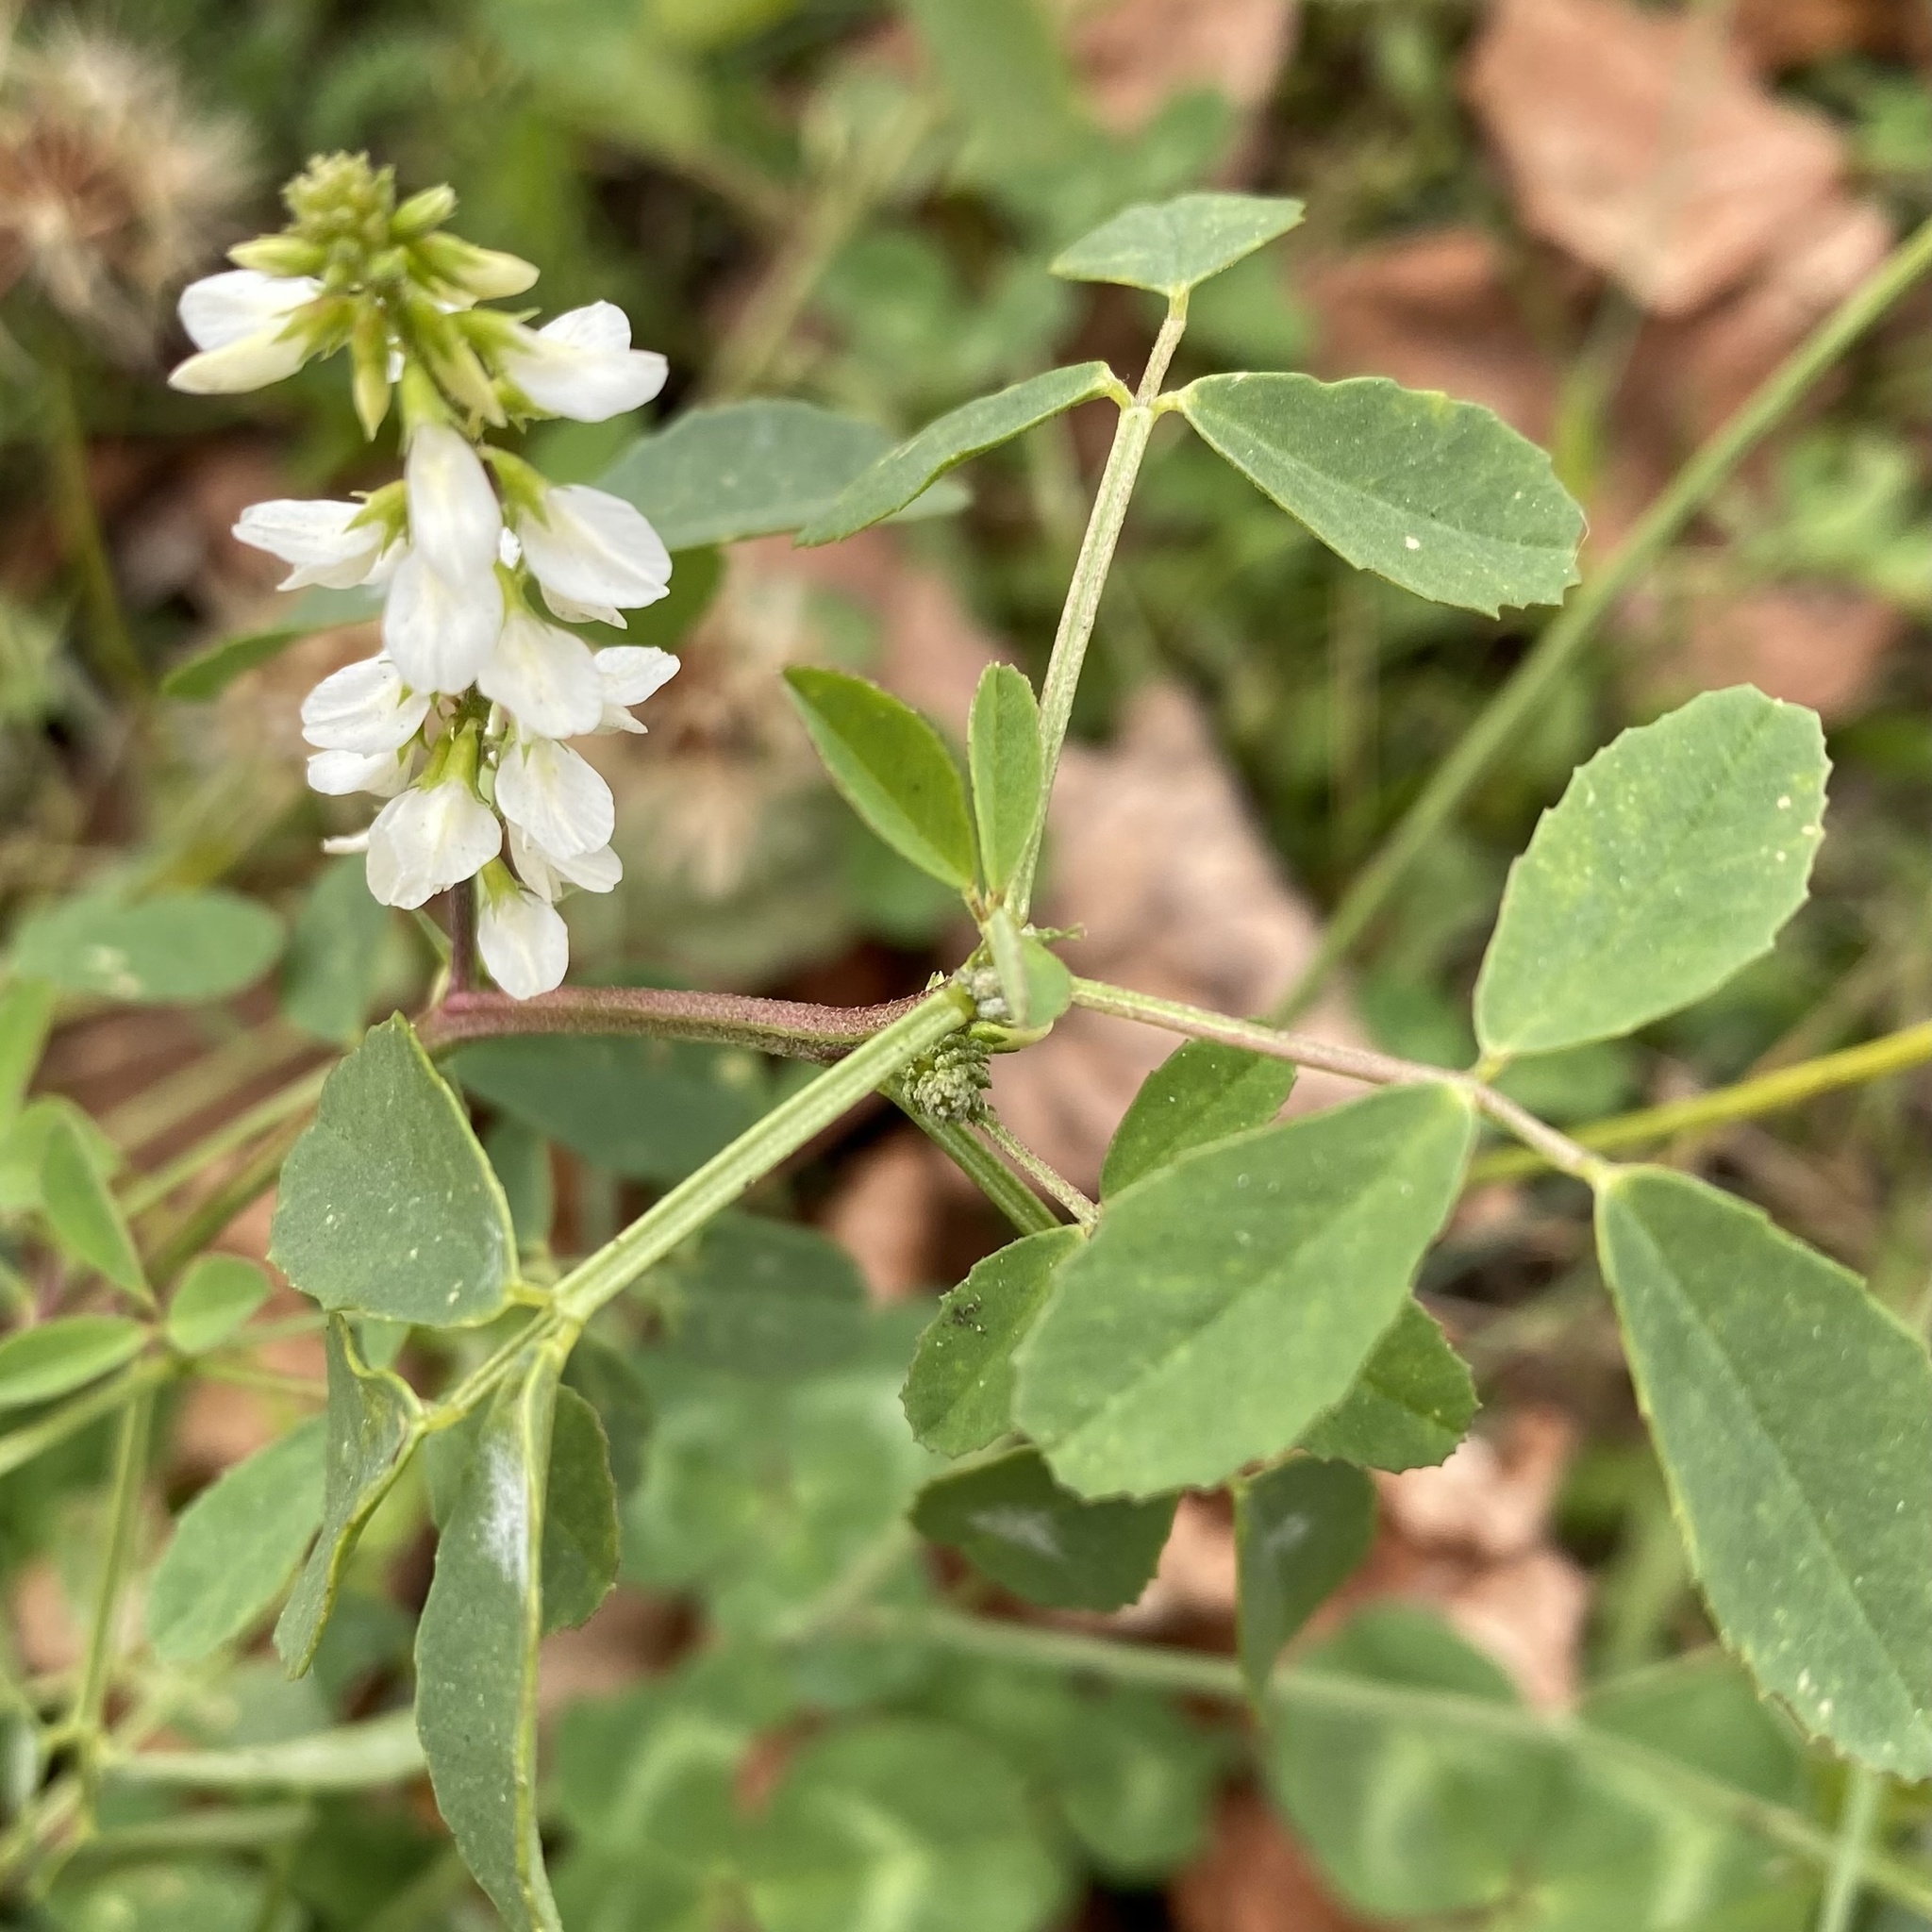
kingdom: Plantae
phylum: Tracheophyta
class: Magnoliopsida
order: Fabales
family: Fabaceae
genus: Melilotus
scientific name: Melilotus albus
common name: White melilot
